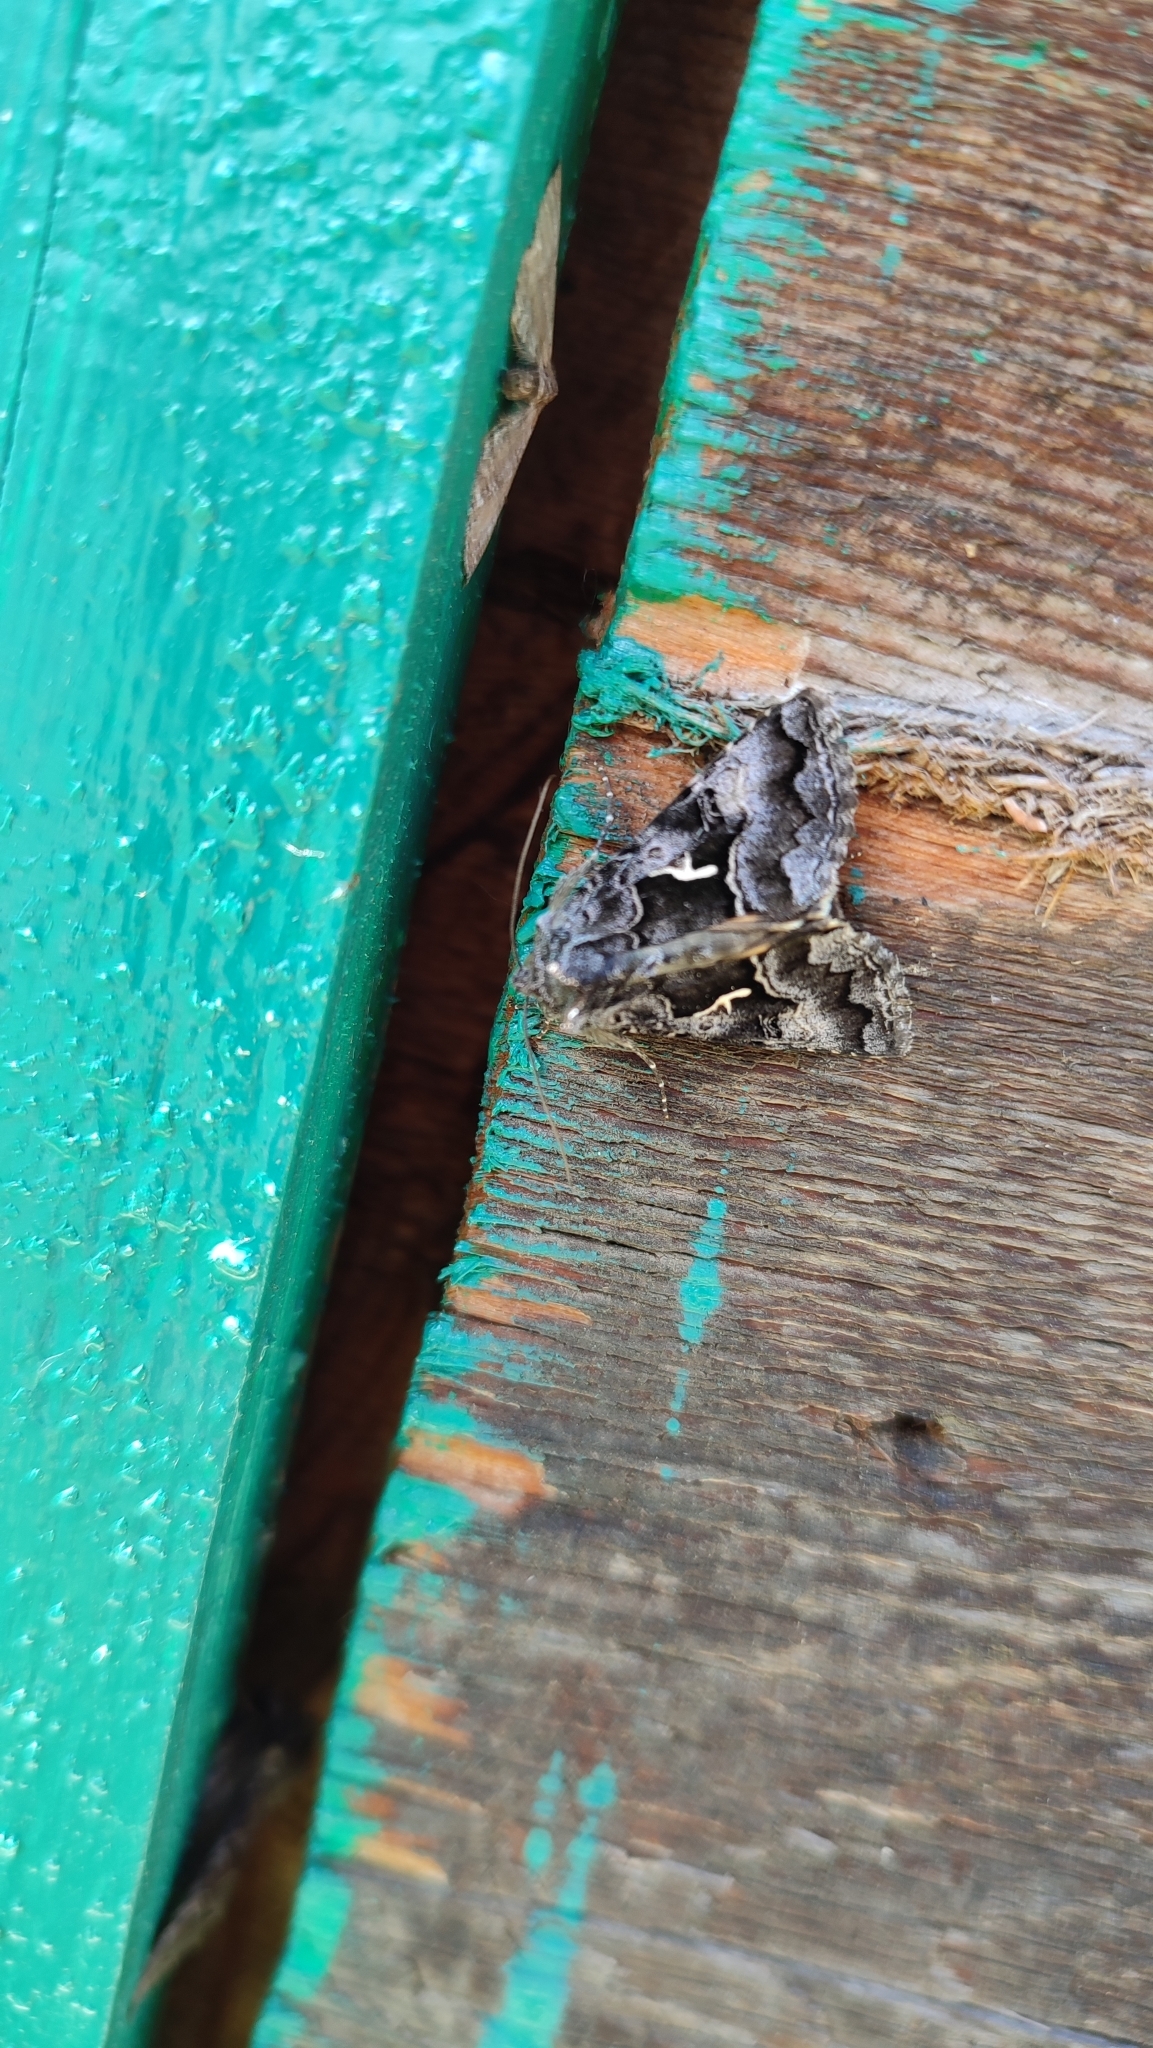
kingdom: Animalia
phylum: Arthropoda
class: Insecta
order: Lepidoptera
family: Noctuidae
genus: Syngrapha
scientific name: Syngrapha ain
